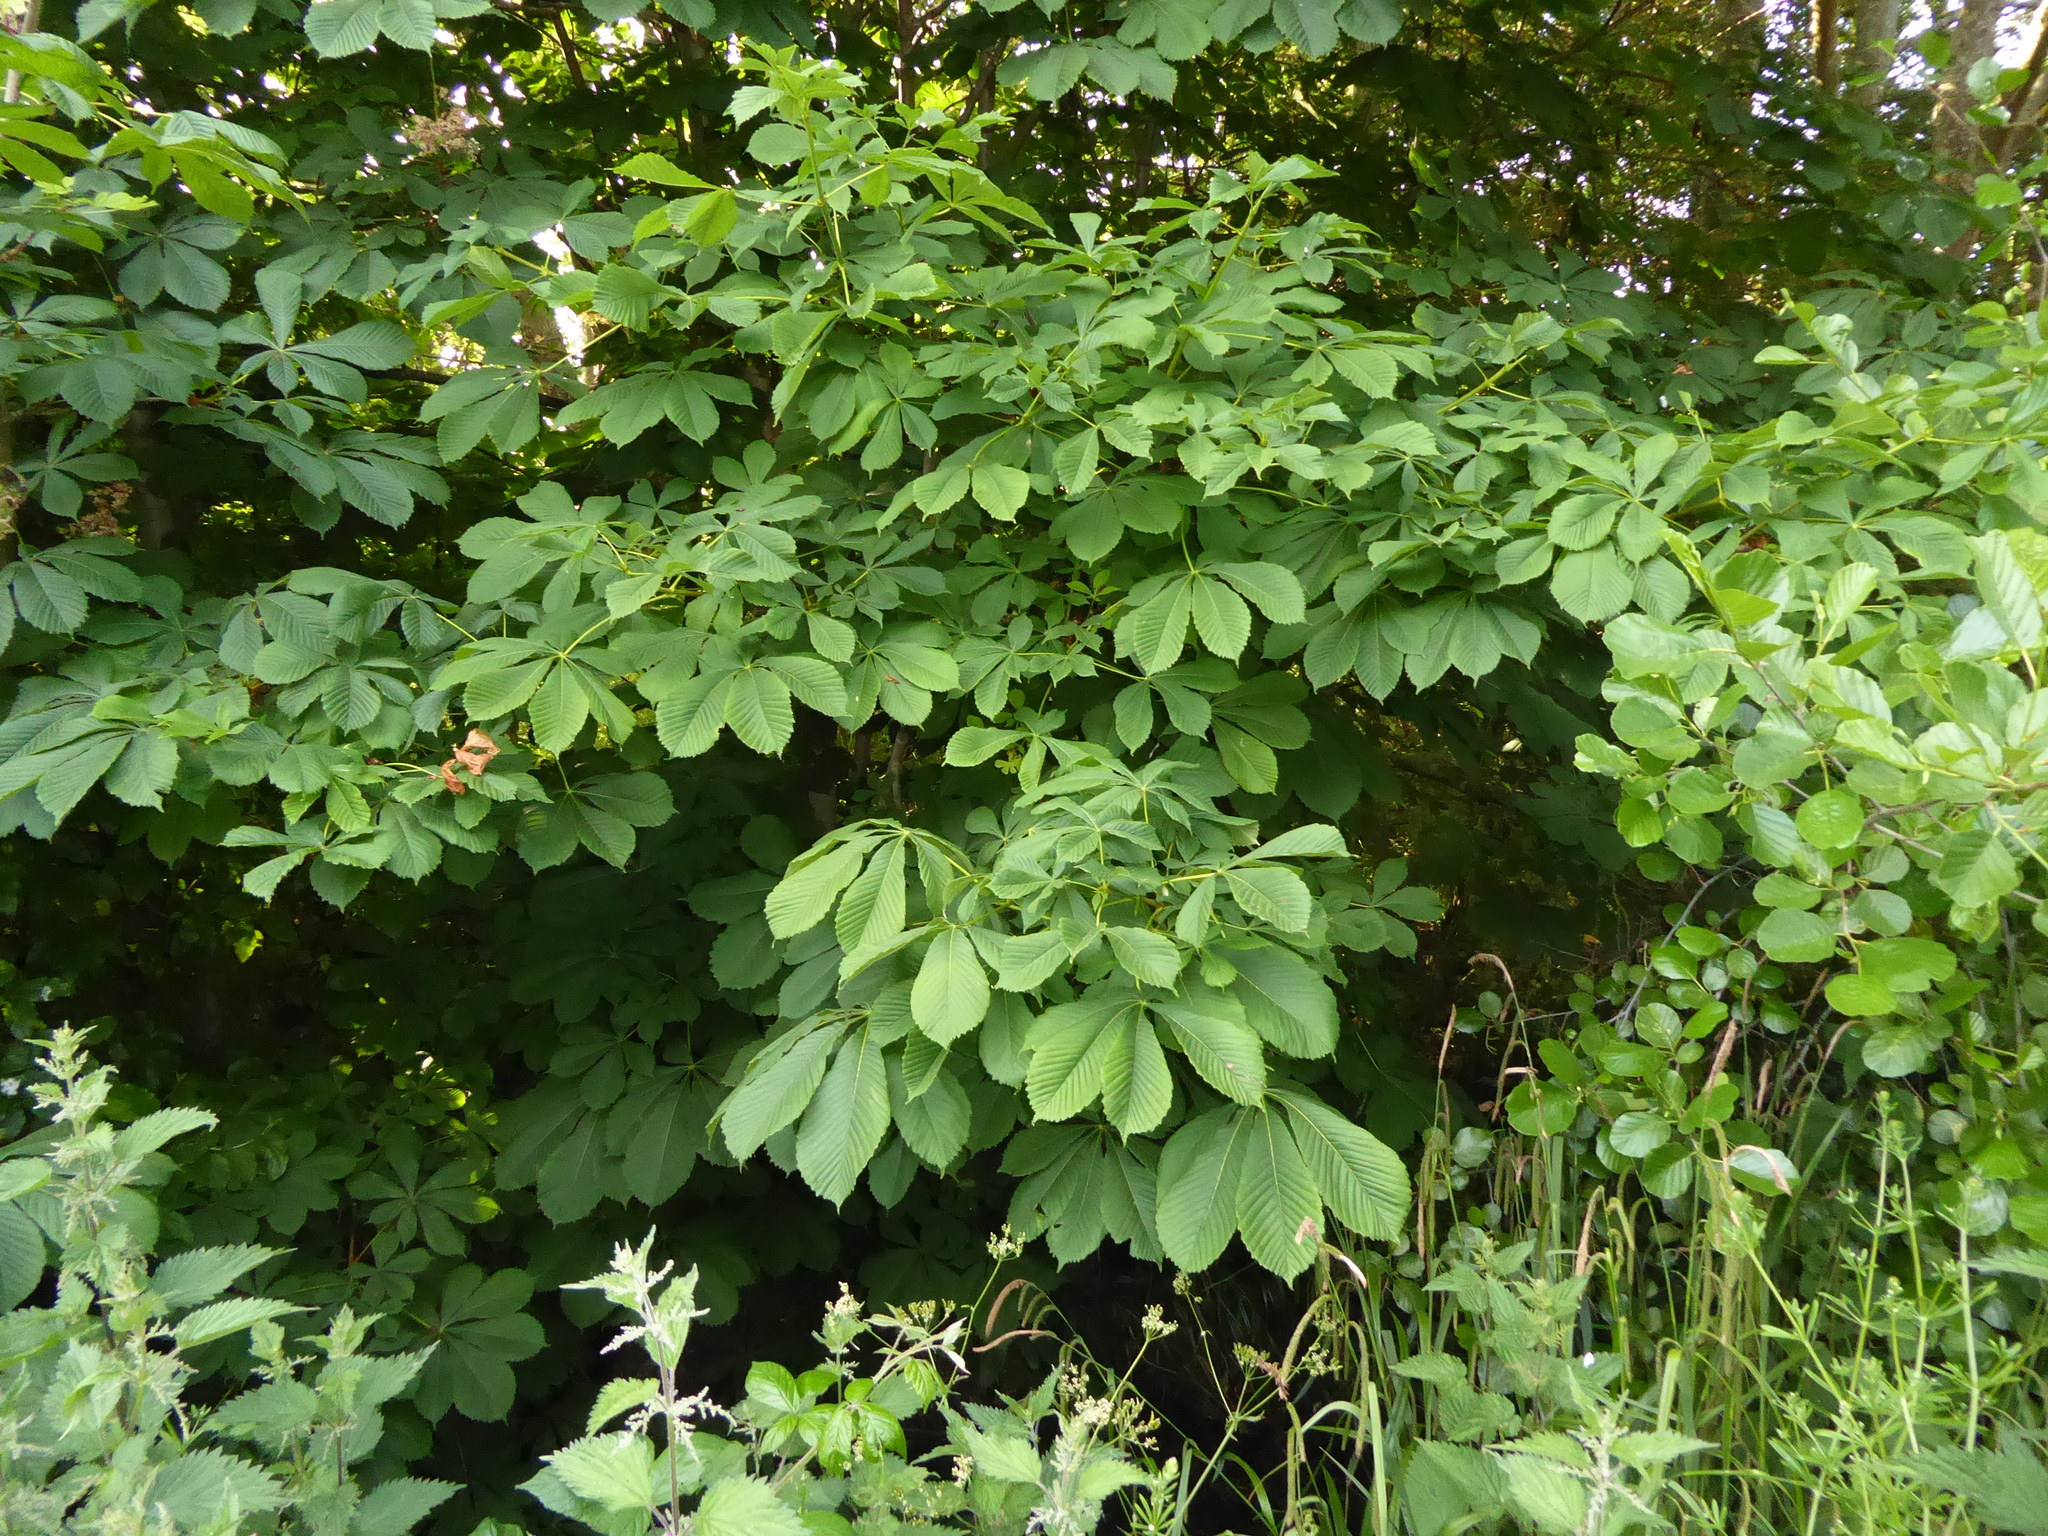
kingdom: Plantae
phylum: Tracheophyta
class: Magnoliopsida
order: Sapindales
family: Sapindaceae
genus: Aesculus
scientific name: Aesculus hippocastanum
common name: Horse-chestnut
